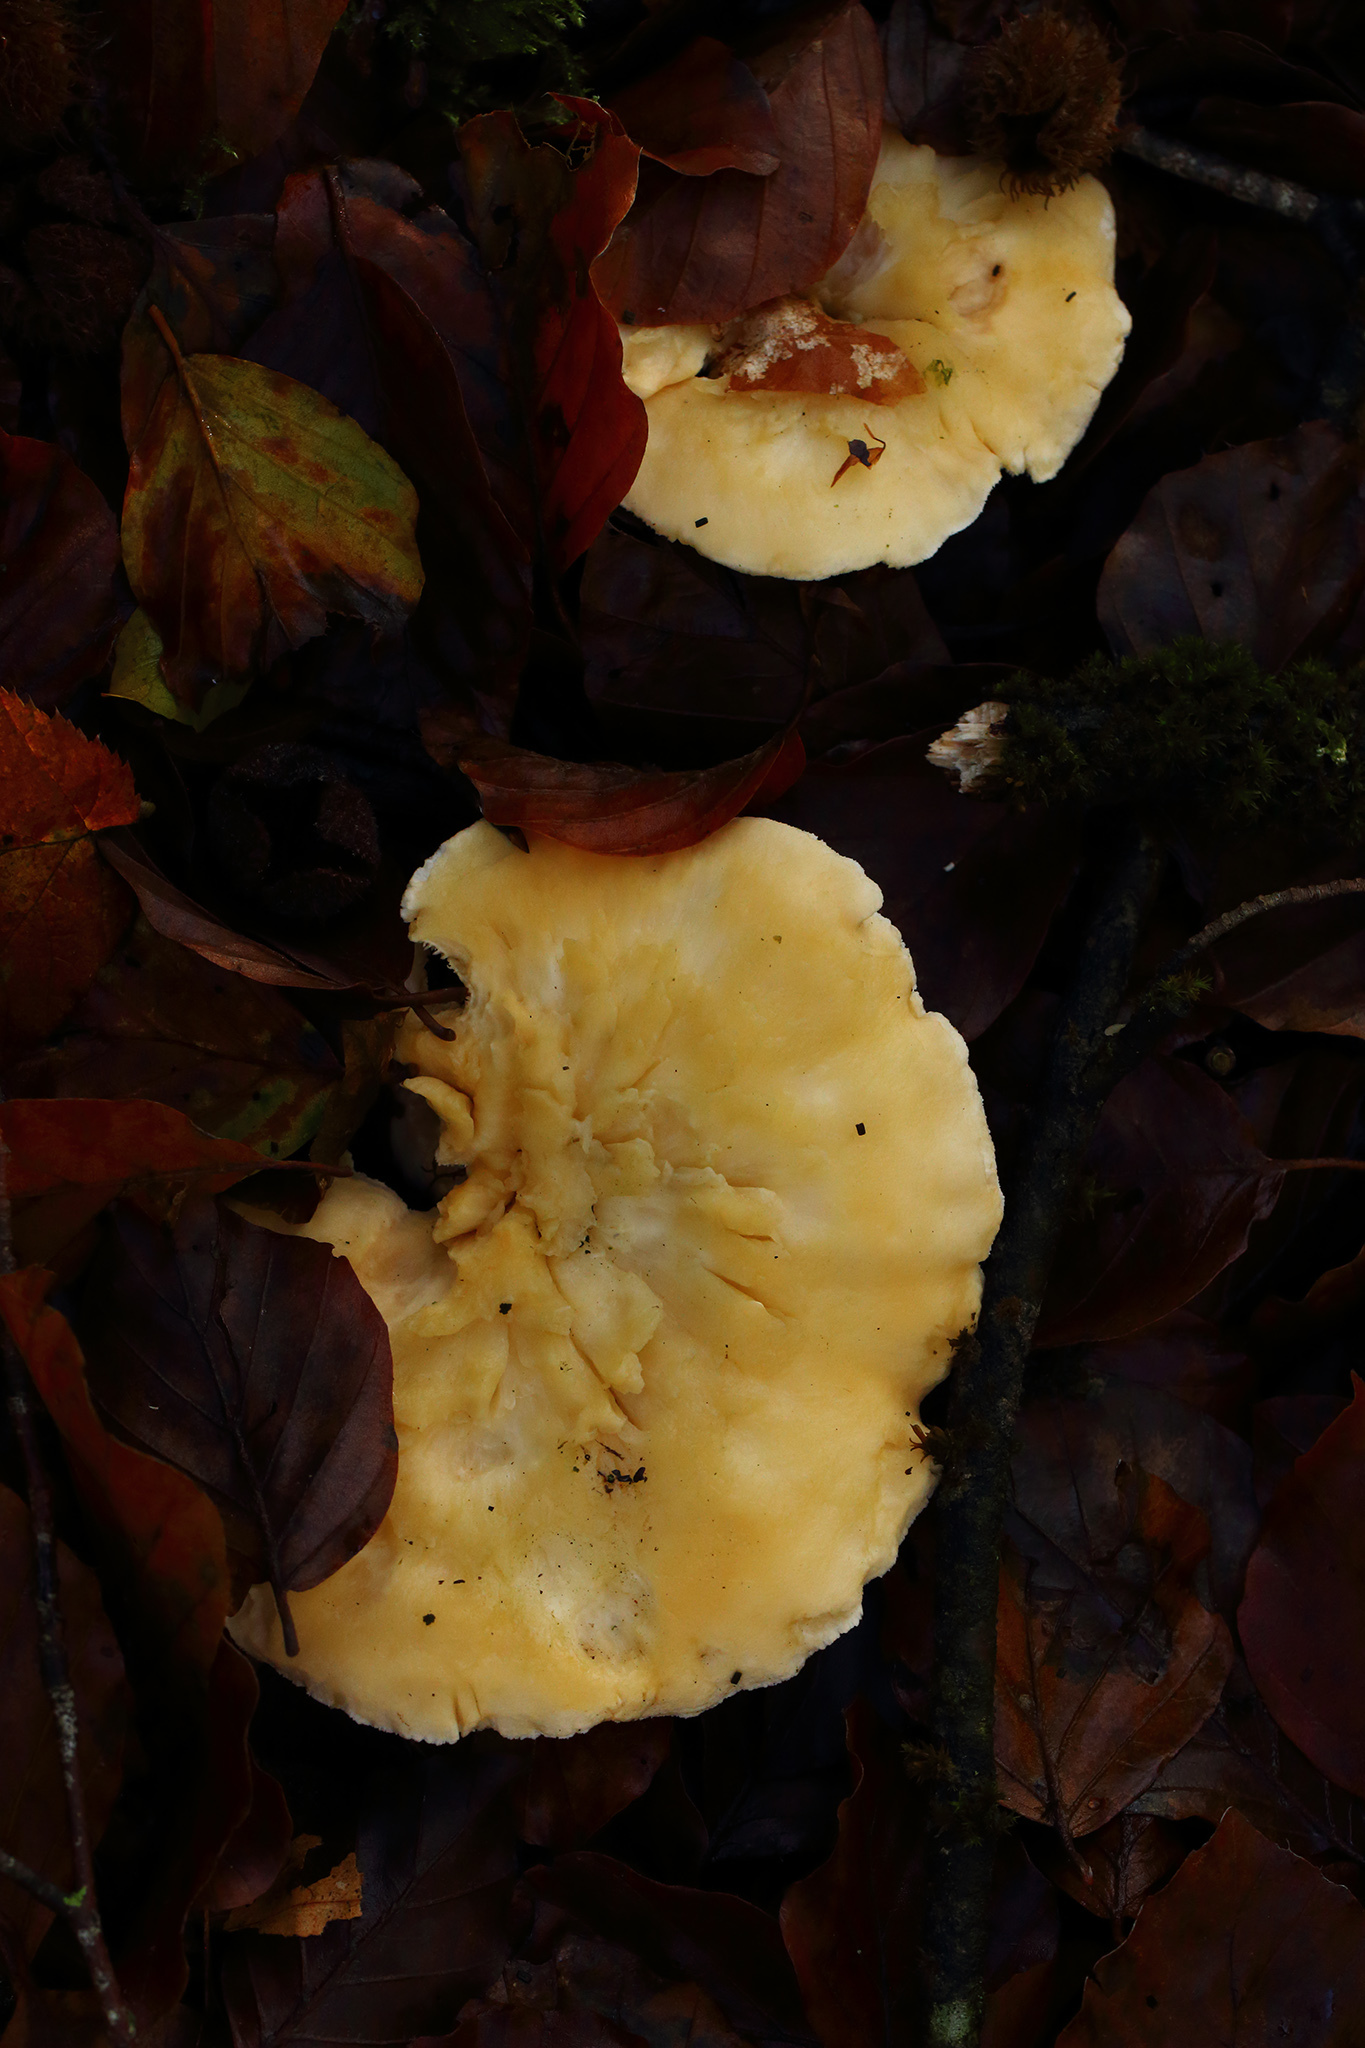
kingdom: Fungi
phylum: Basidiomycota
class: Agaricomycetes
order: Cantharellales
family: Hydnaceae
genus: Hydnum
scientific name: Hydnum repandum
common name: Wood hedgehog
